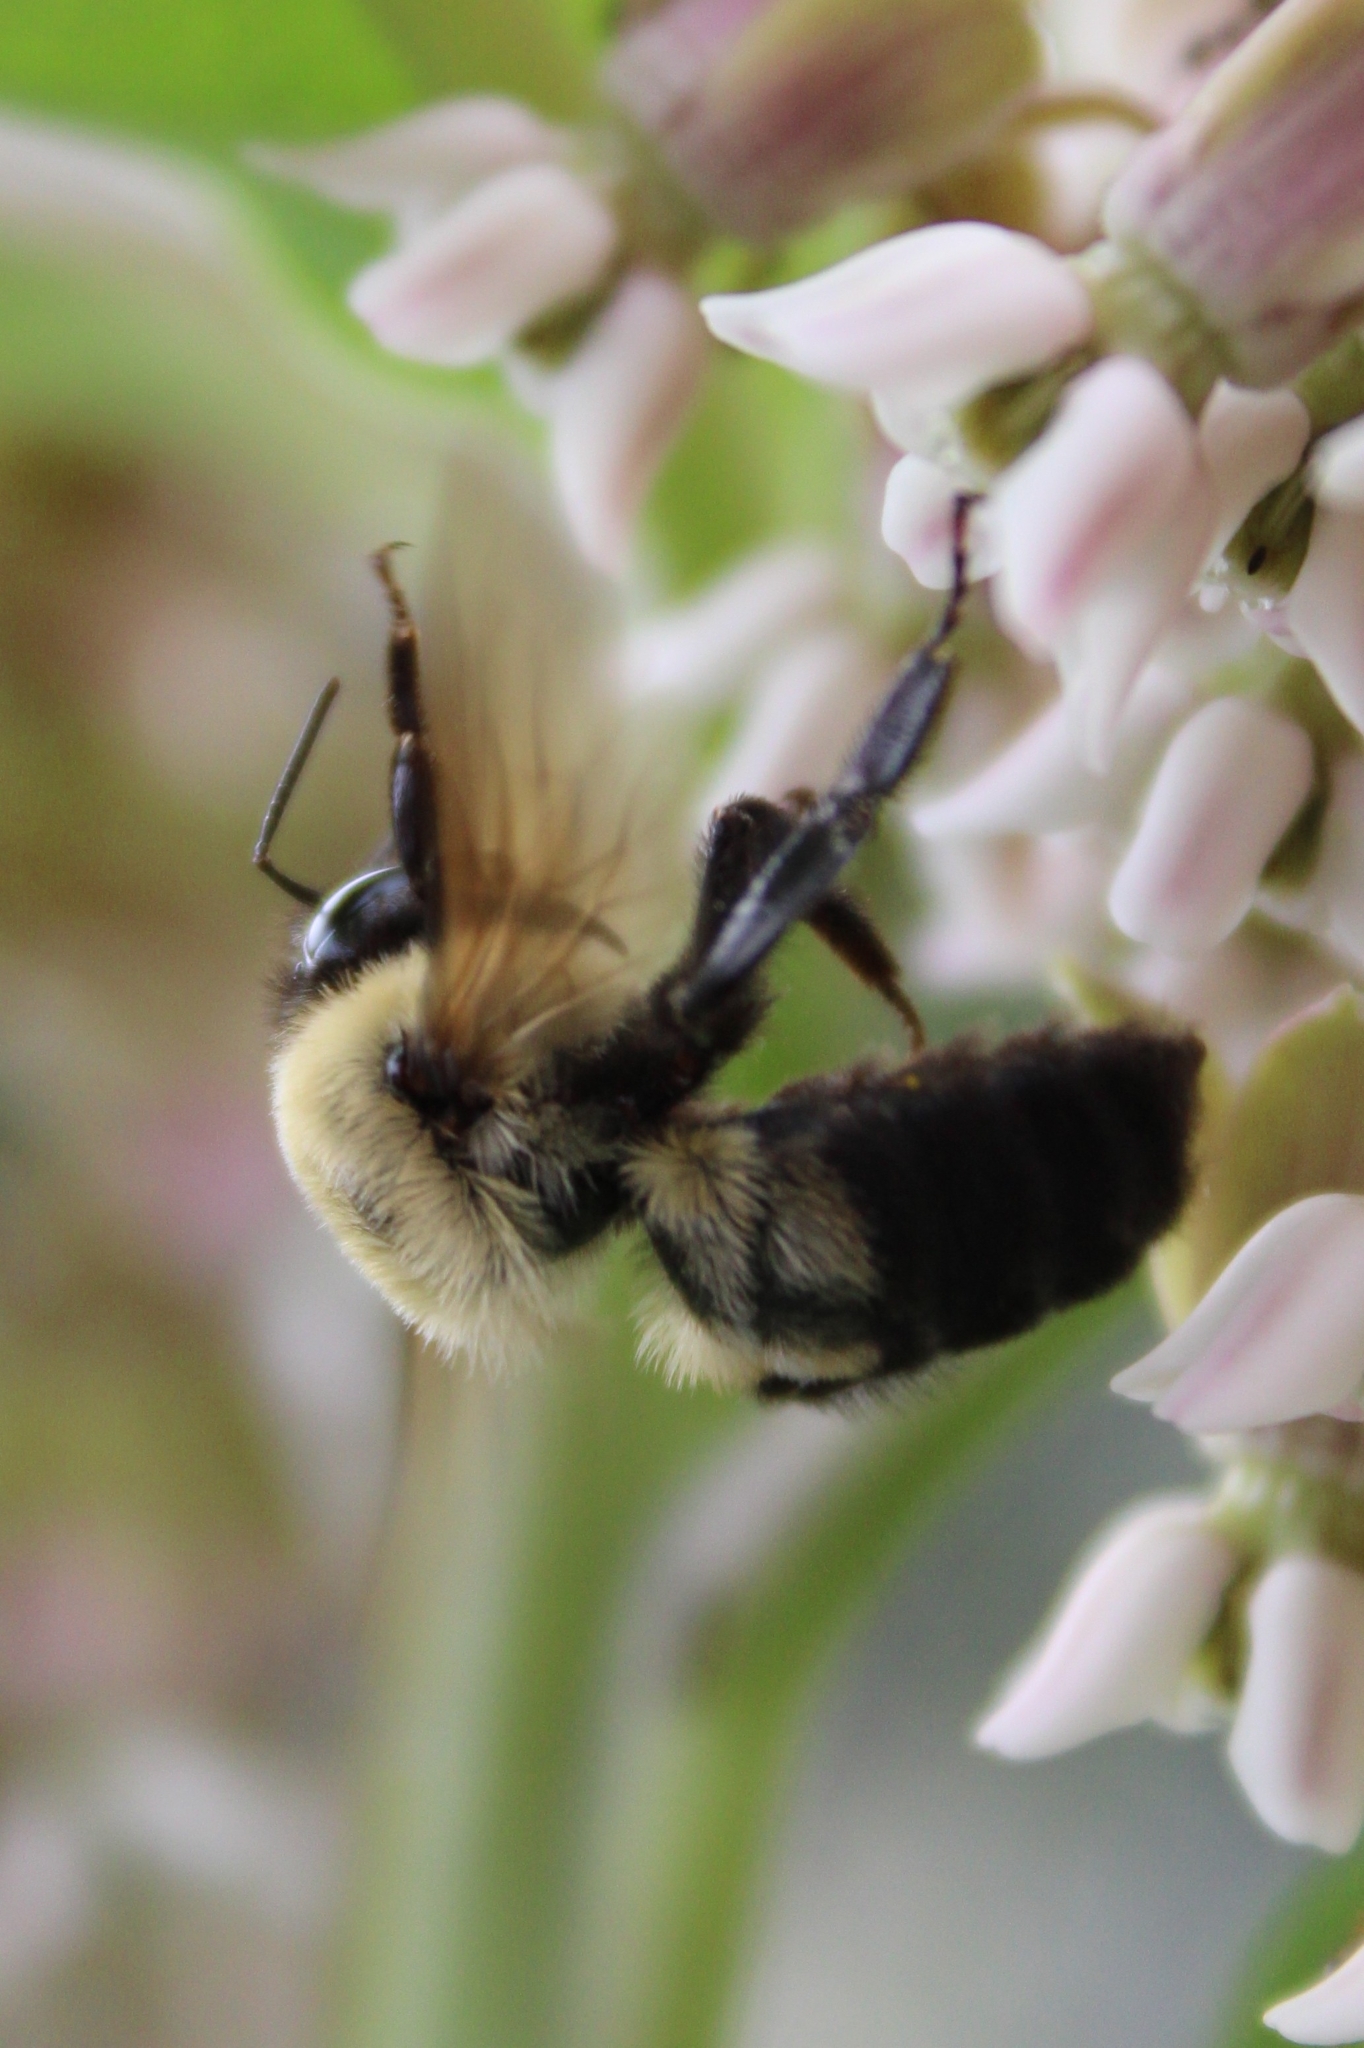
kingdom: Animalia
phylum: Arthropoda
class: Insecta
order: Hymenoptera
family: Apidae
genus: Bombus
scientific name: Bombus griseocollis
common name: Brown-belted bumble bee
